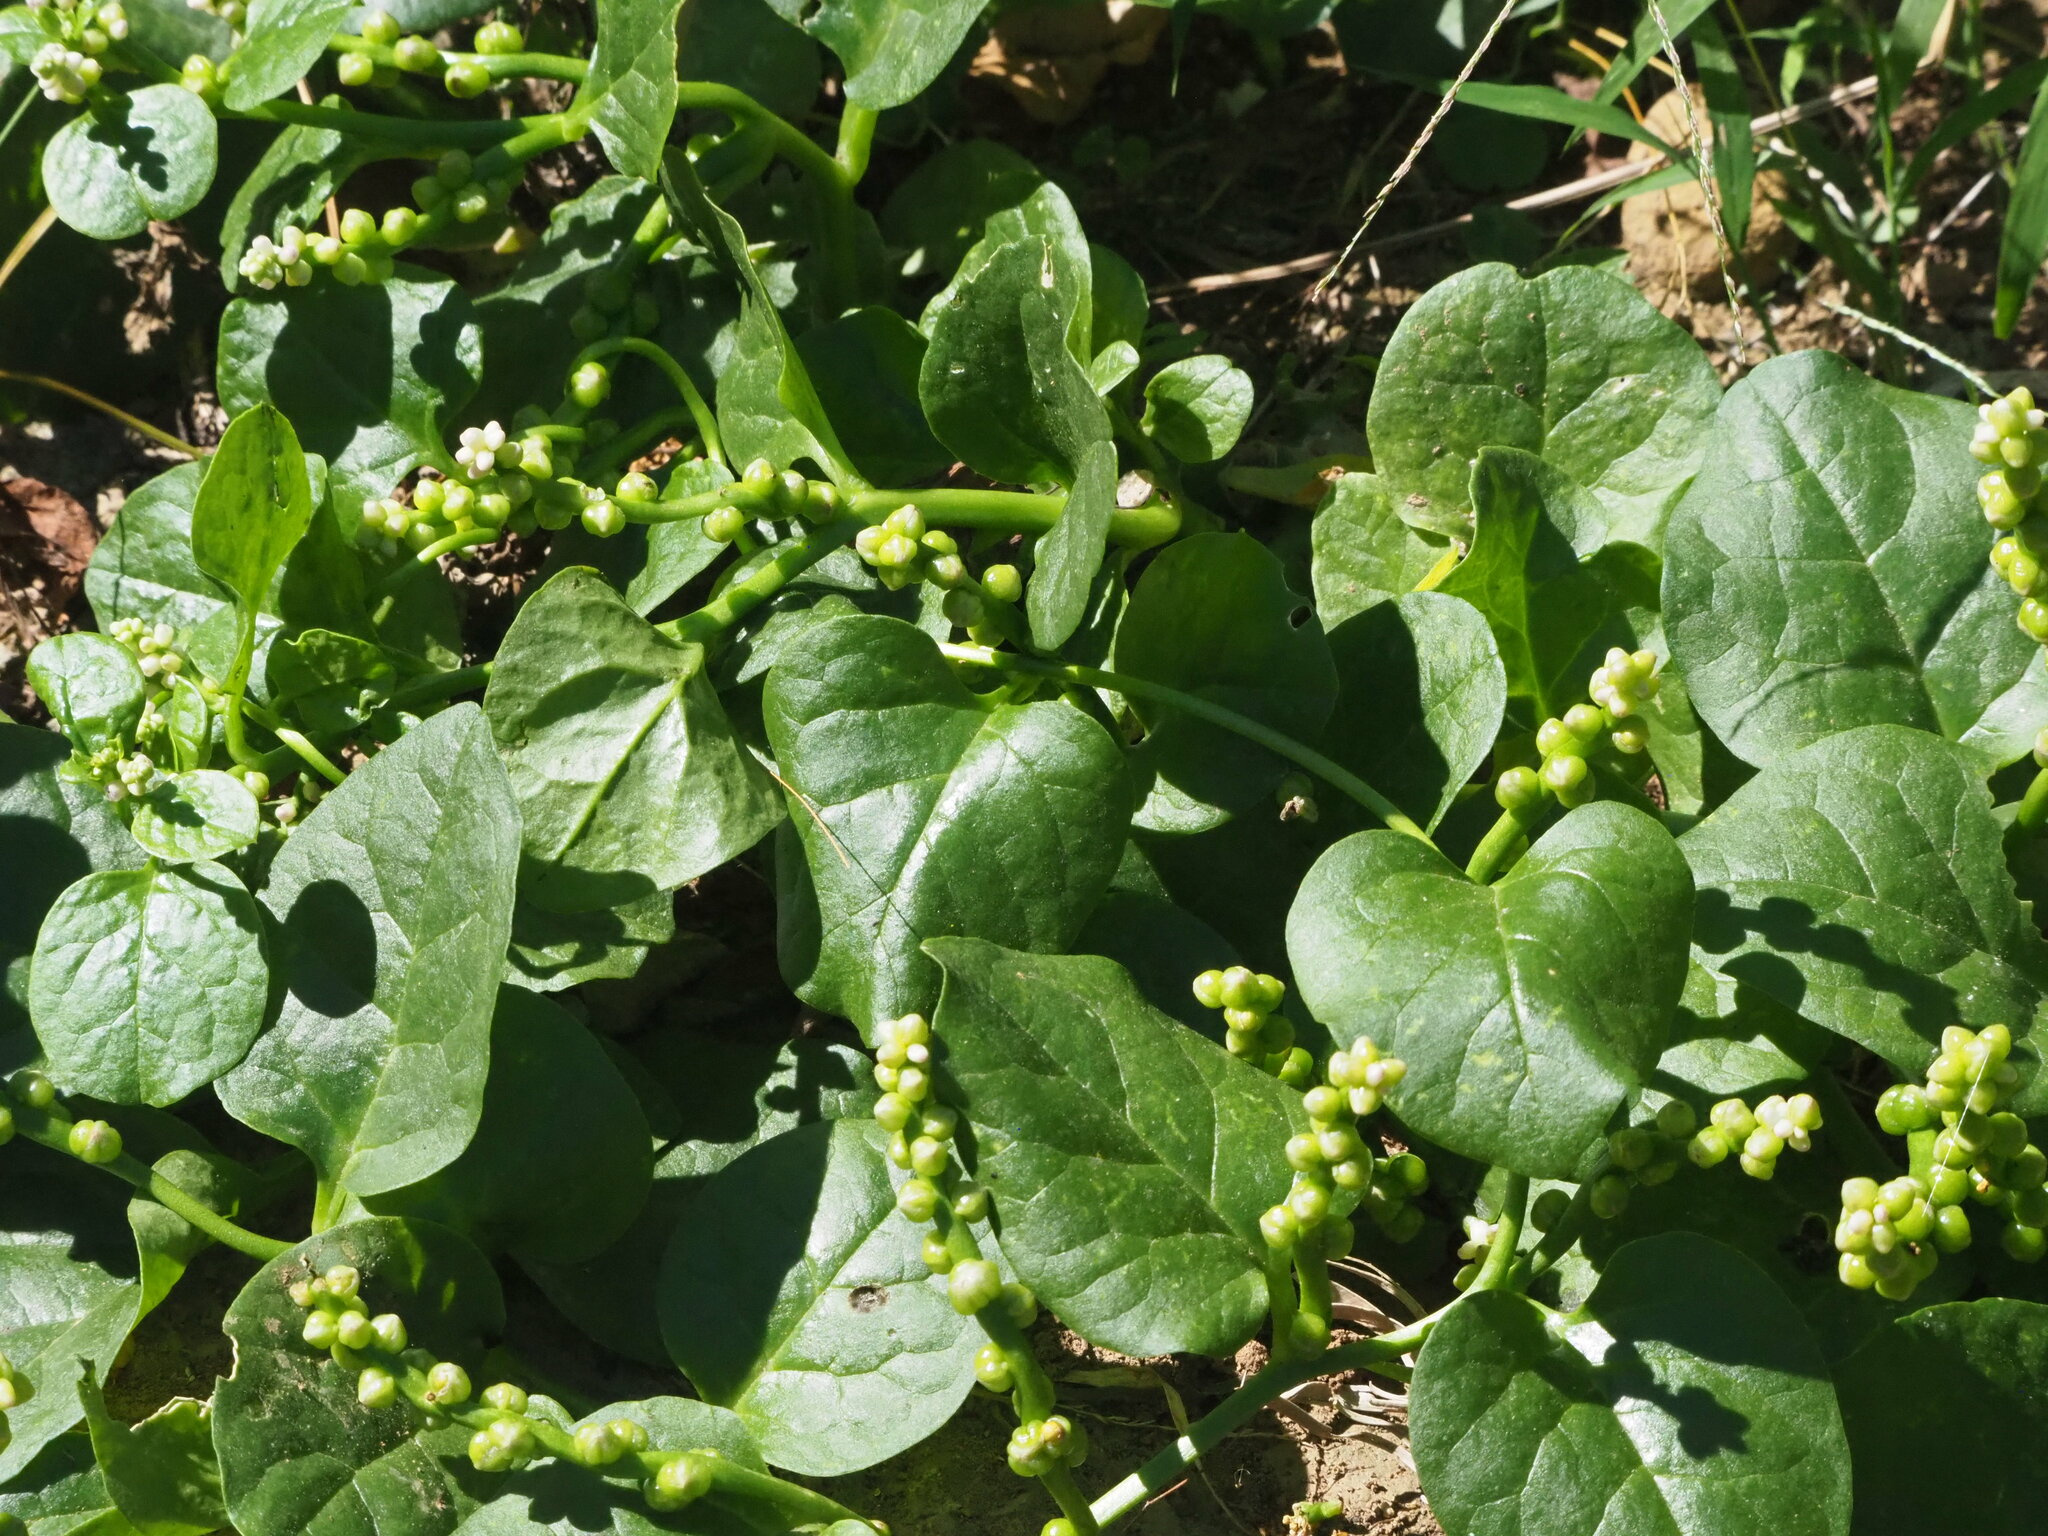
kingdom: Plantae
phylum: Tracheophyta
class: Magnoliopsida
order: Caryophyllales
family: Basellaceae
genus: Basella
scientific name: Basella alba
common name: Indian spinach
